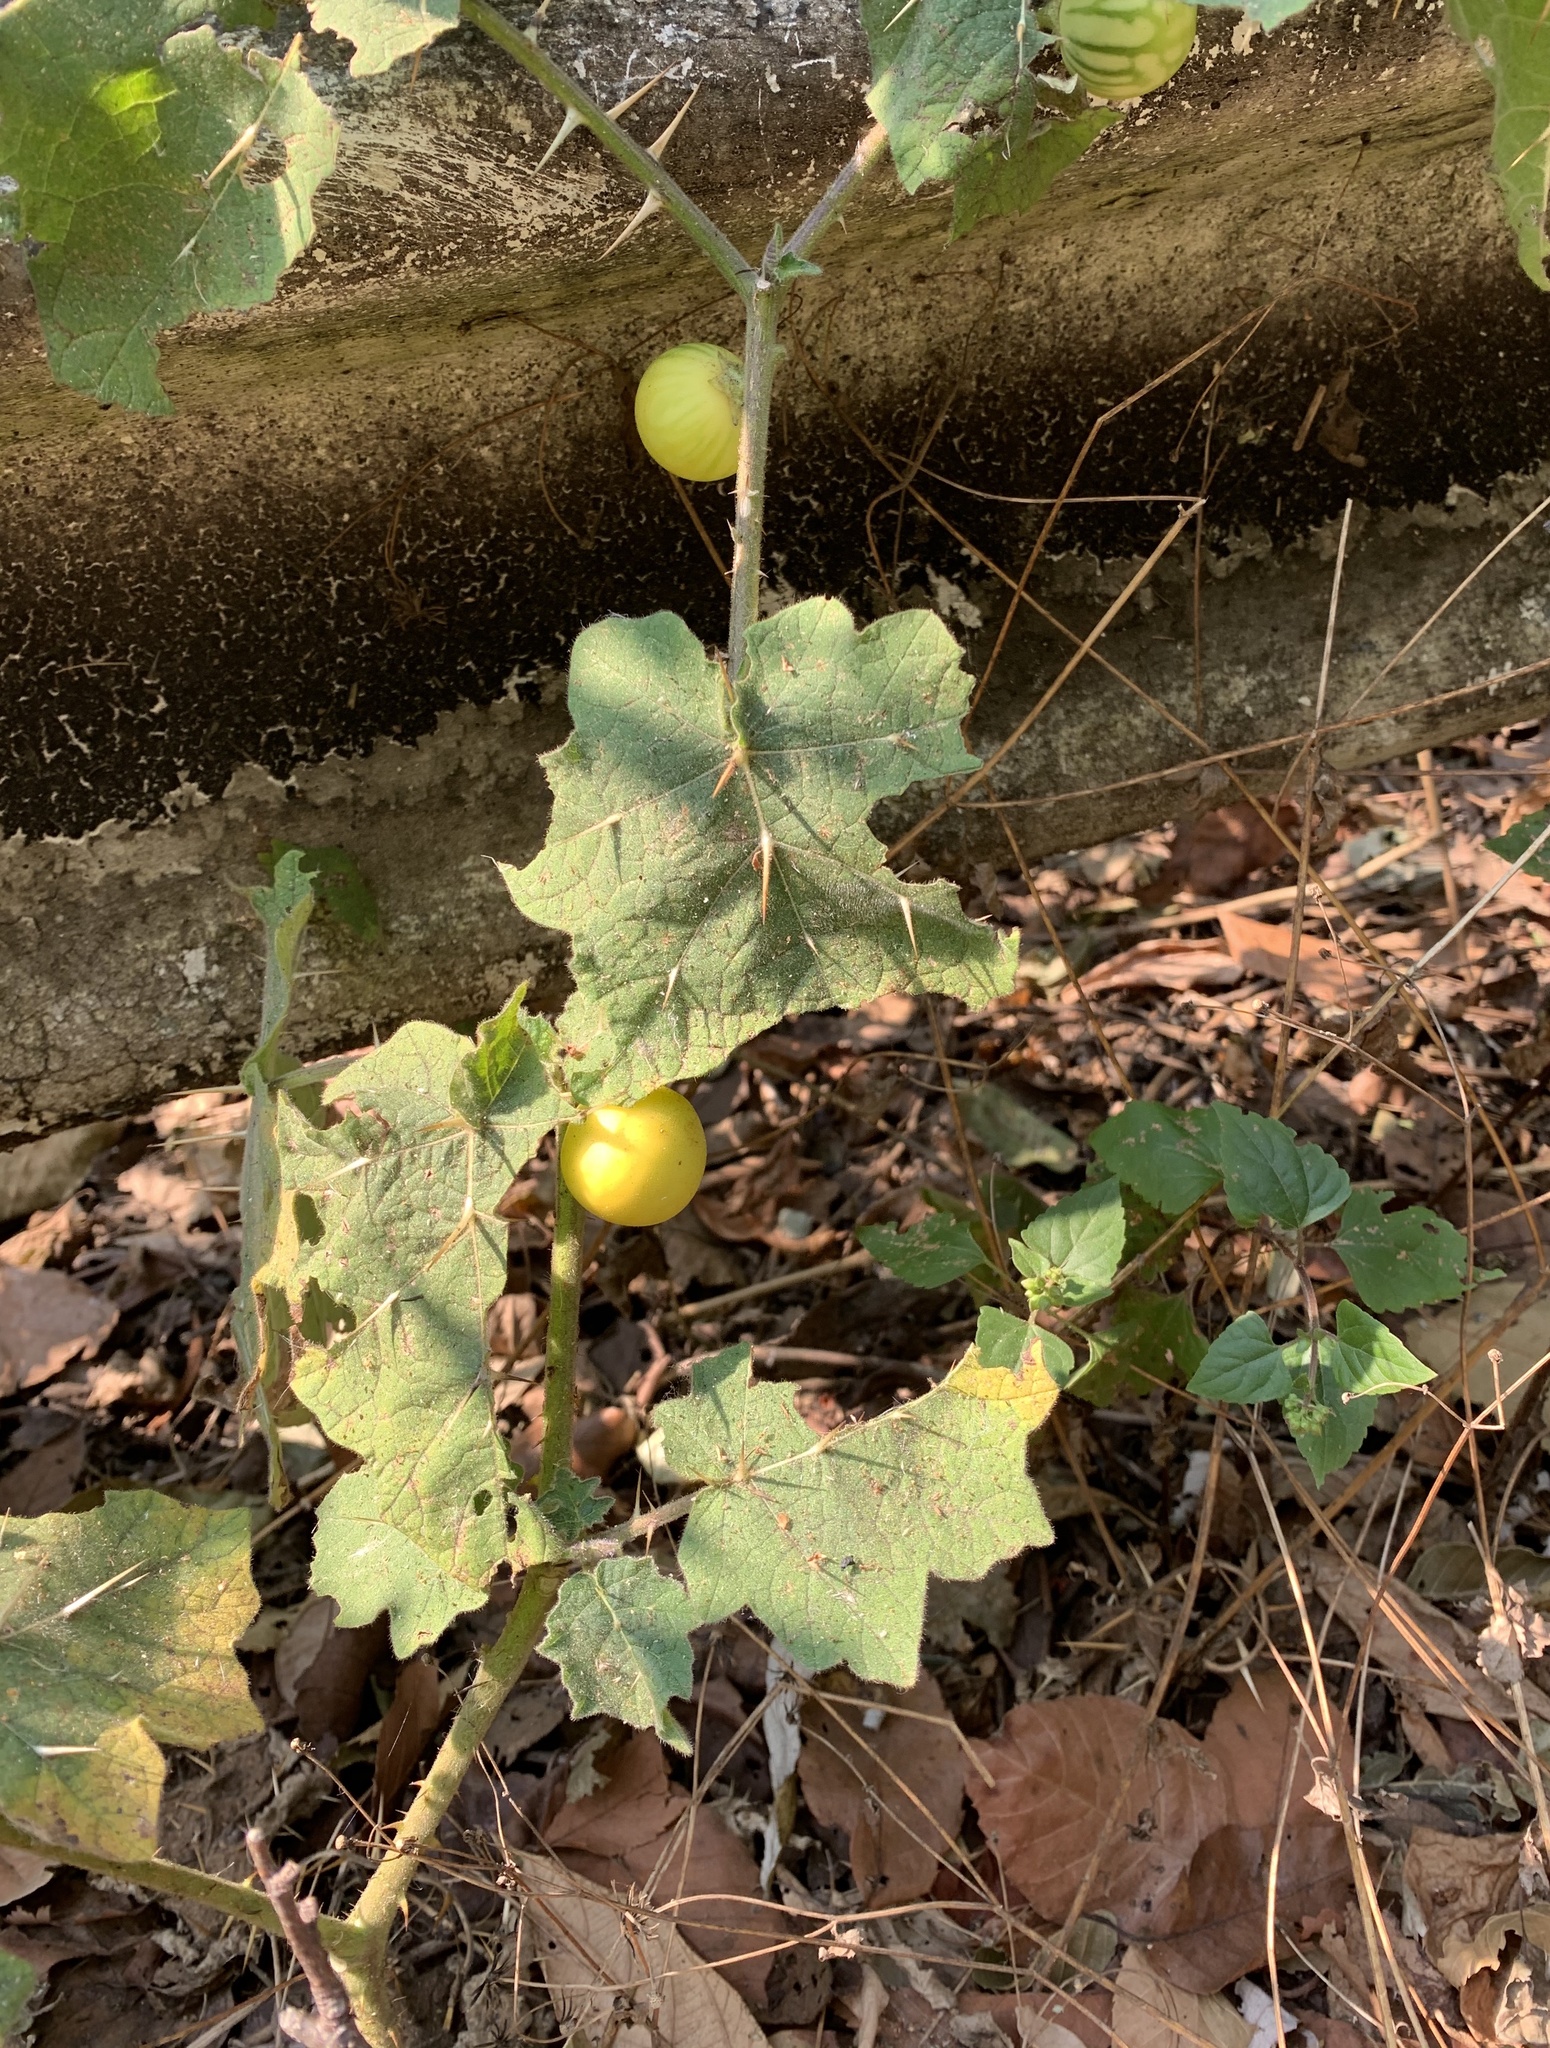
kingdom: Plantae
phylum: Tracheophyta
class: Magnoliopsida
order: Solanales
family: Solanaceae
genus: Solanum
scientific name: Solanum viarum
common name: Tropical soda apple
